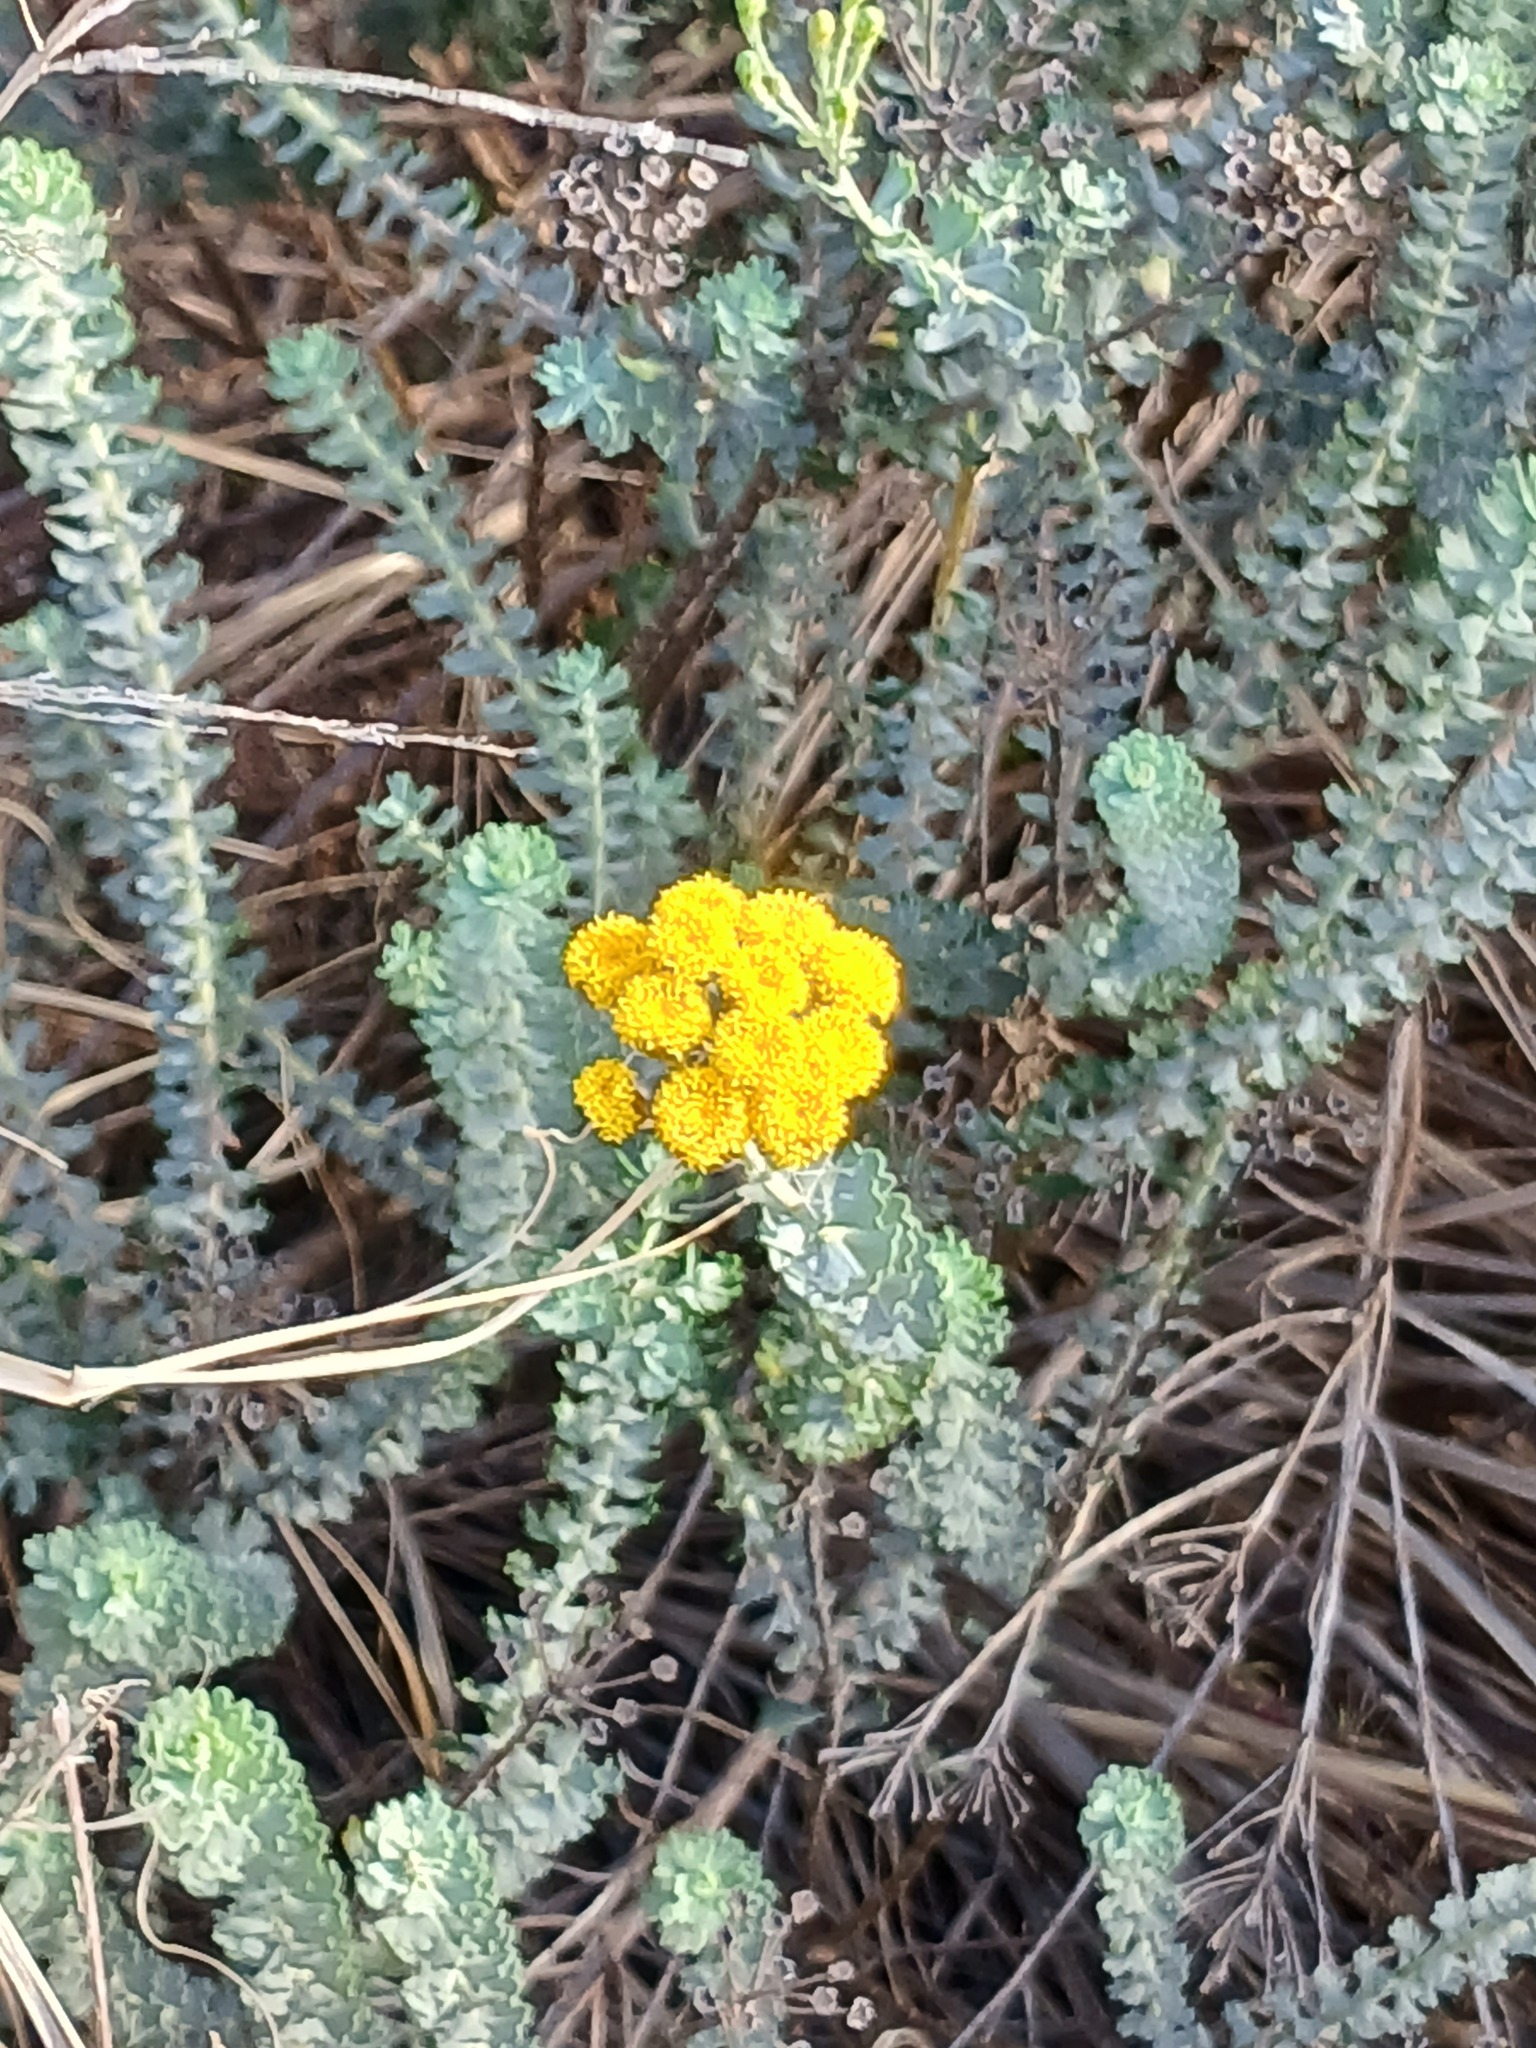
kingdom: Plantae
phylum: Tracheophyta
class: Magnoliopsida
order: Asterales
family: Asteraceae
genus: Athanasia
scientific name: Athanasia trifurcata
